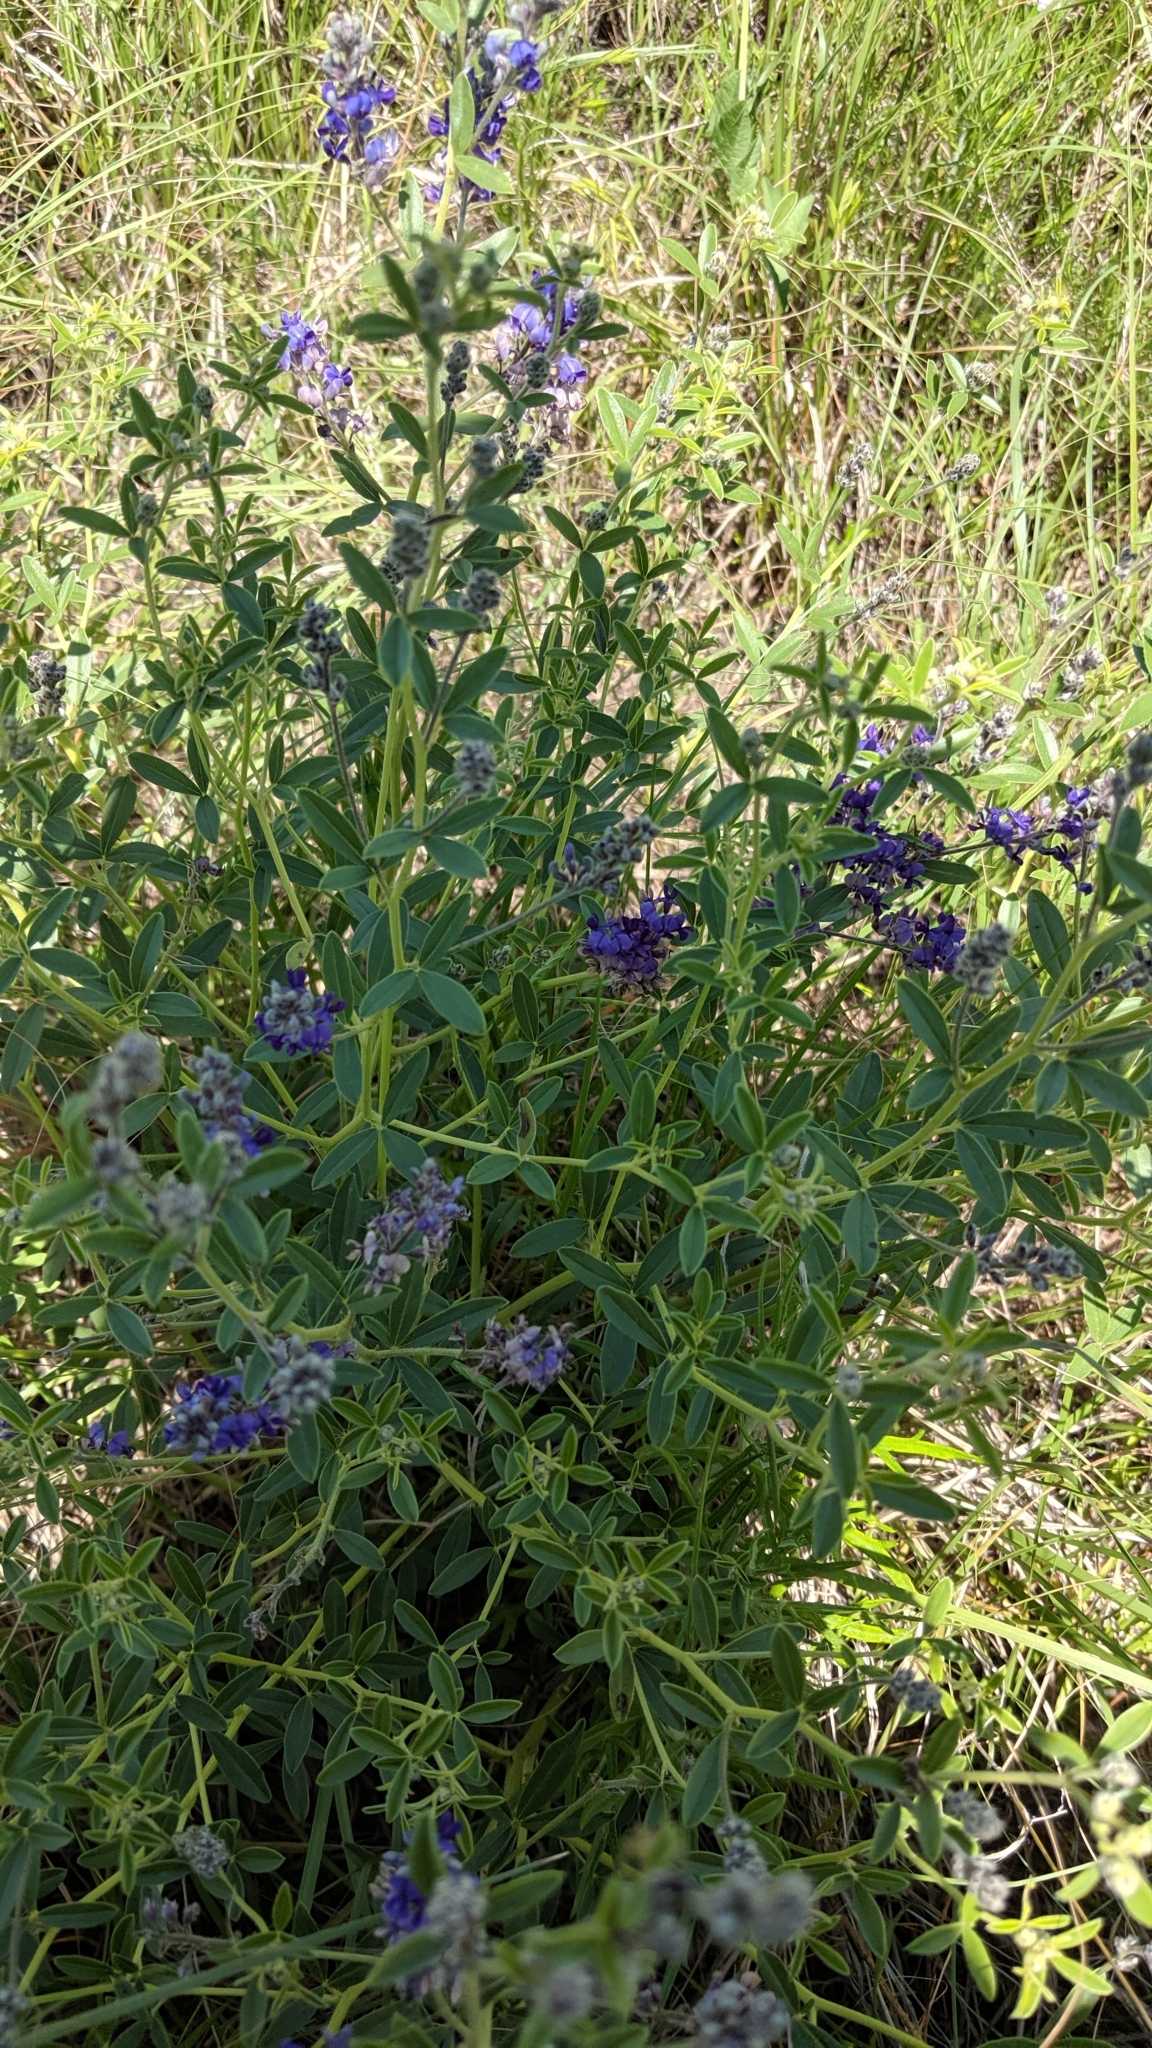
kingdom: Plantae
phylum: Tracheophyta
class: Magnoliopsida
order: Fabales
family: Fabaceae
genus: Pediomelum
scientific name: Pediomelum tenuiflorum
